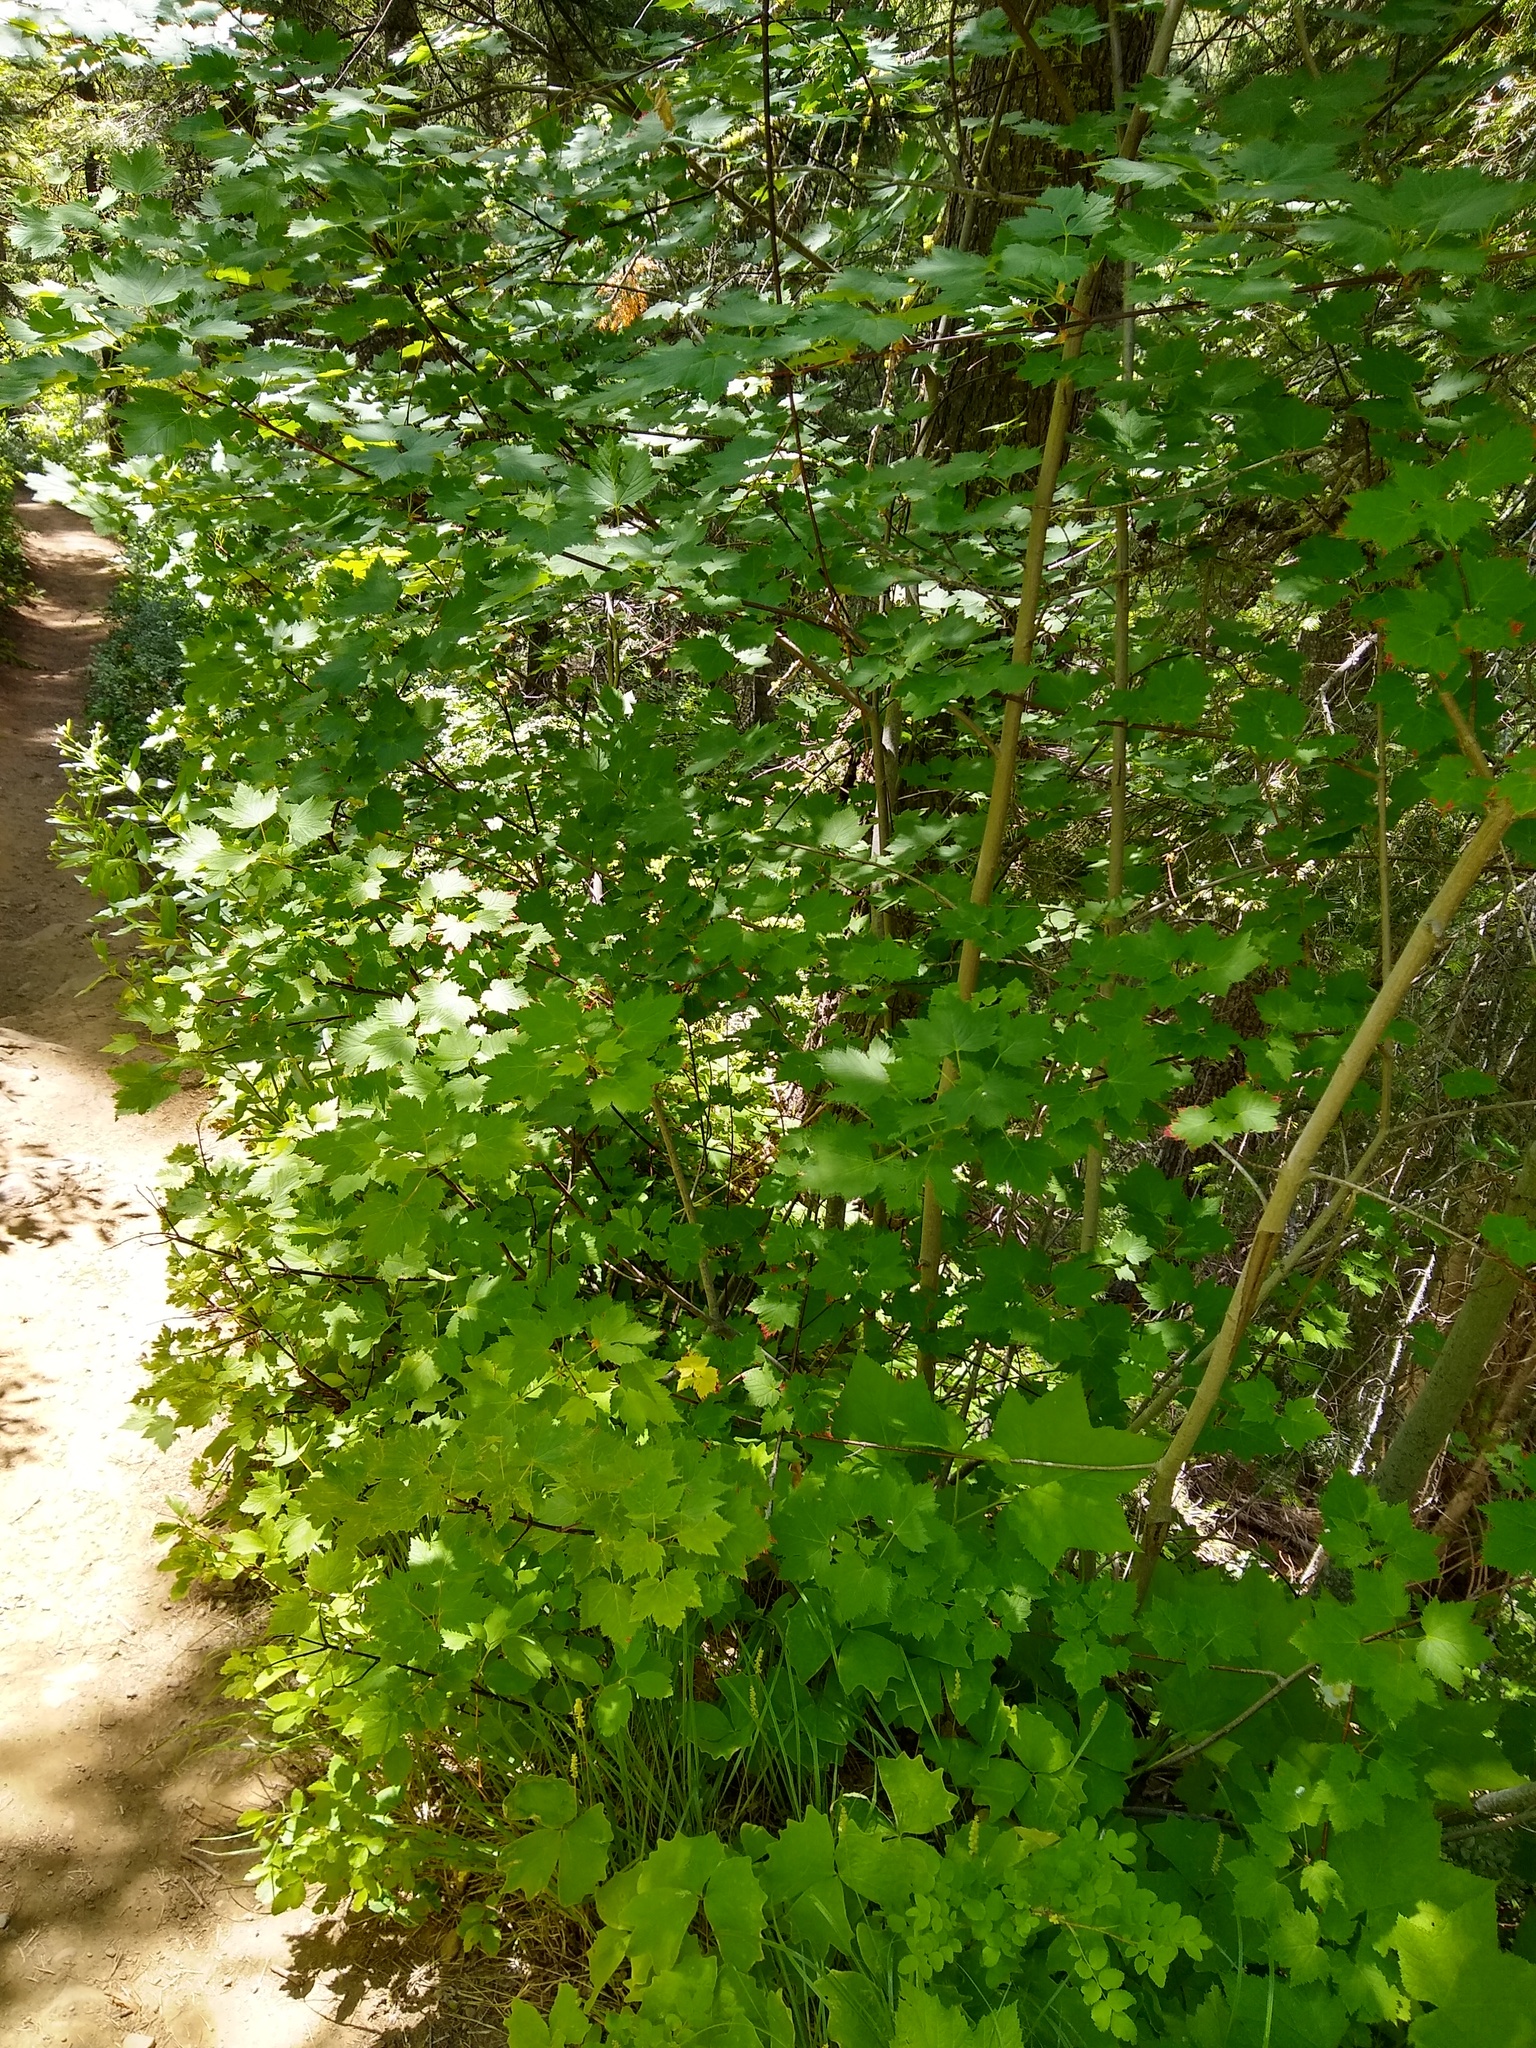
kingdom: Plantae
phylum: Tracheophyta
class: Magnoliopsida
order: Sapindales
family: Sapindaceae
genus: Acer
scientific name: Acer glabrum
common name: Rocky mountain maple
